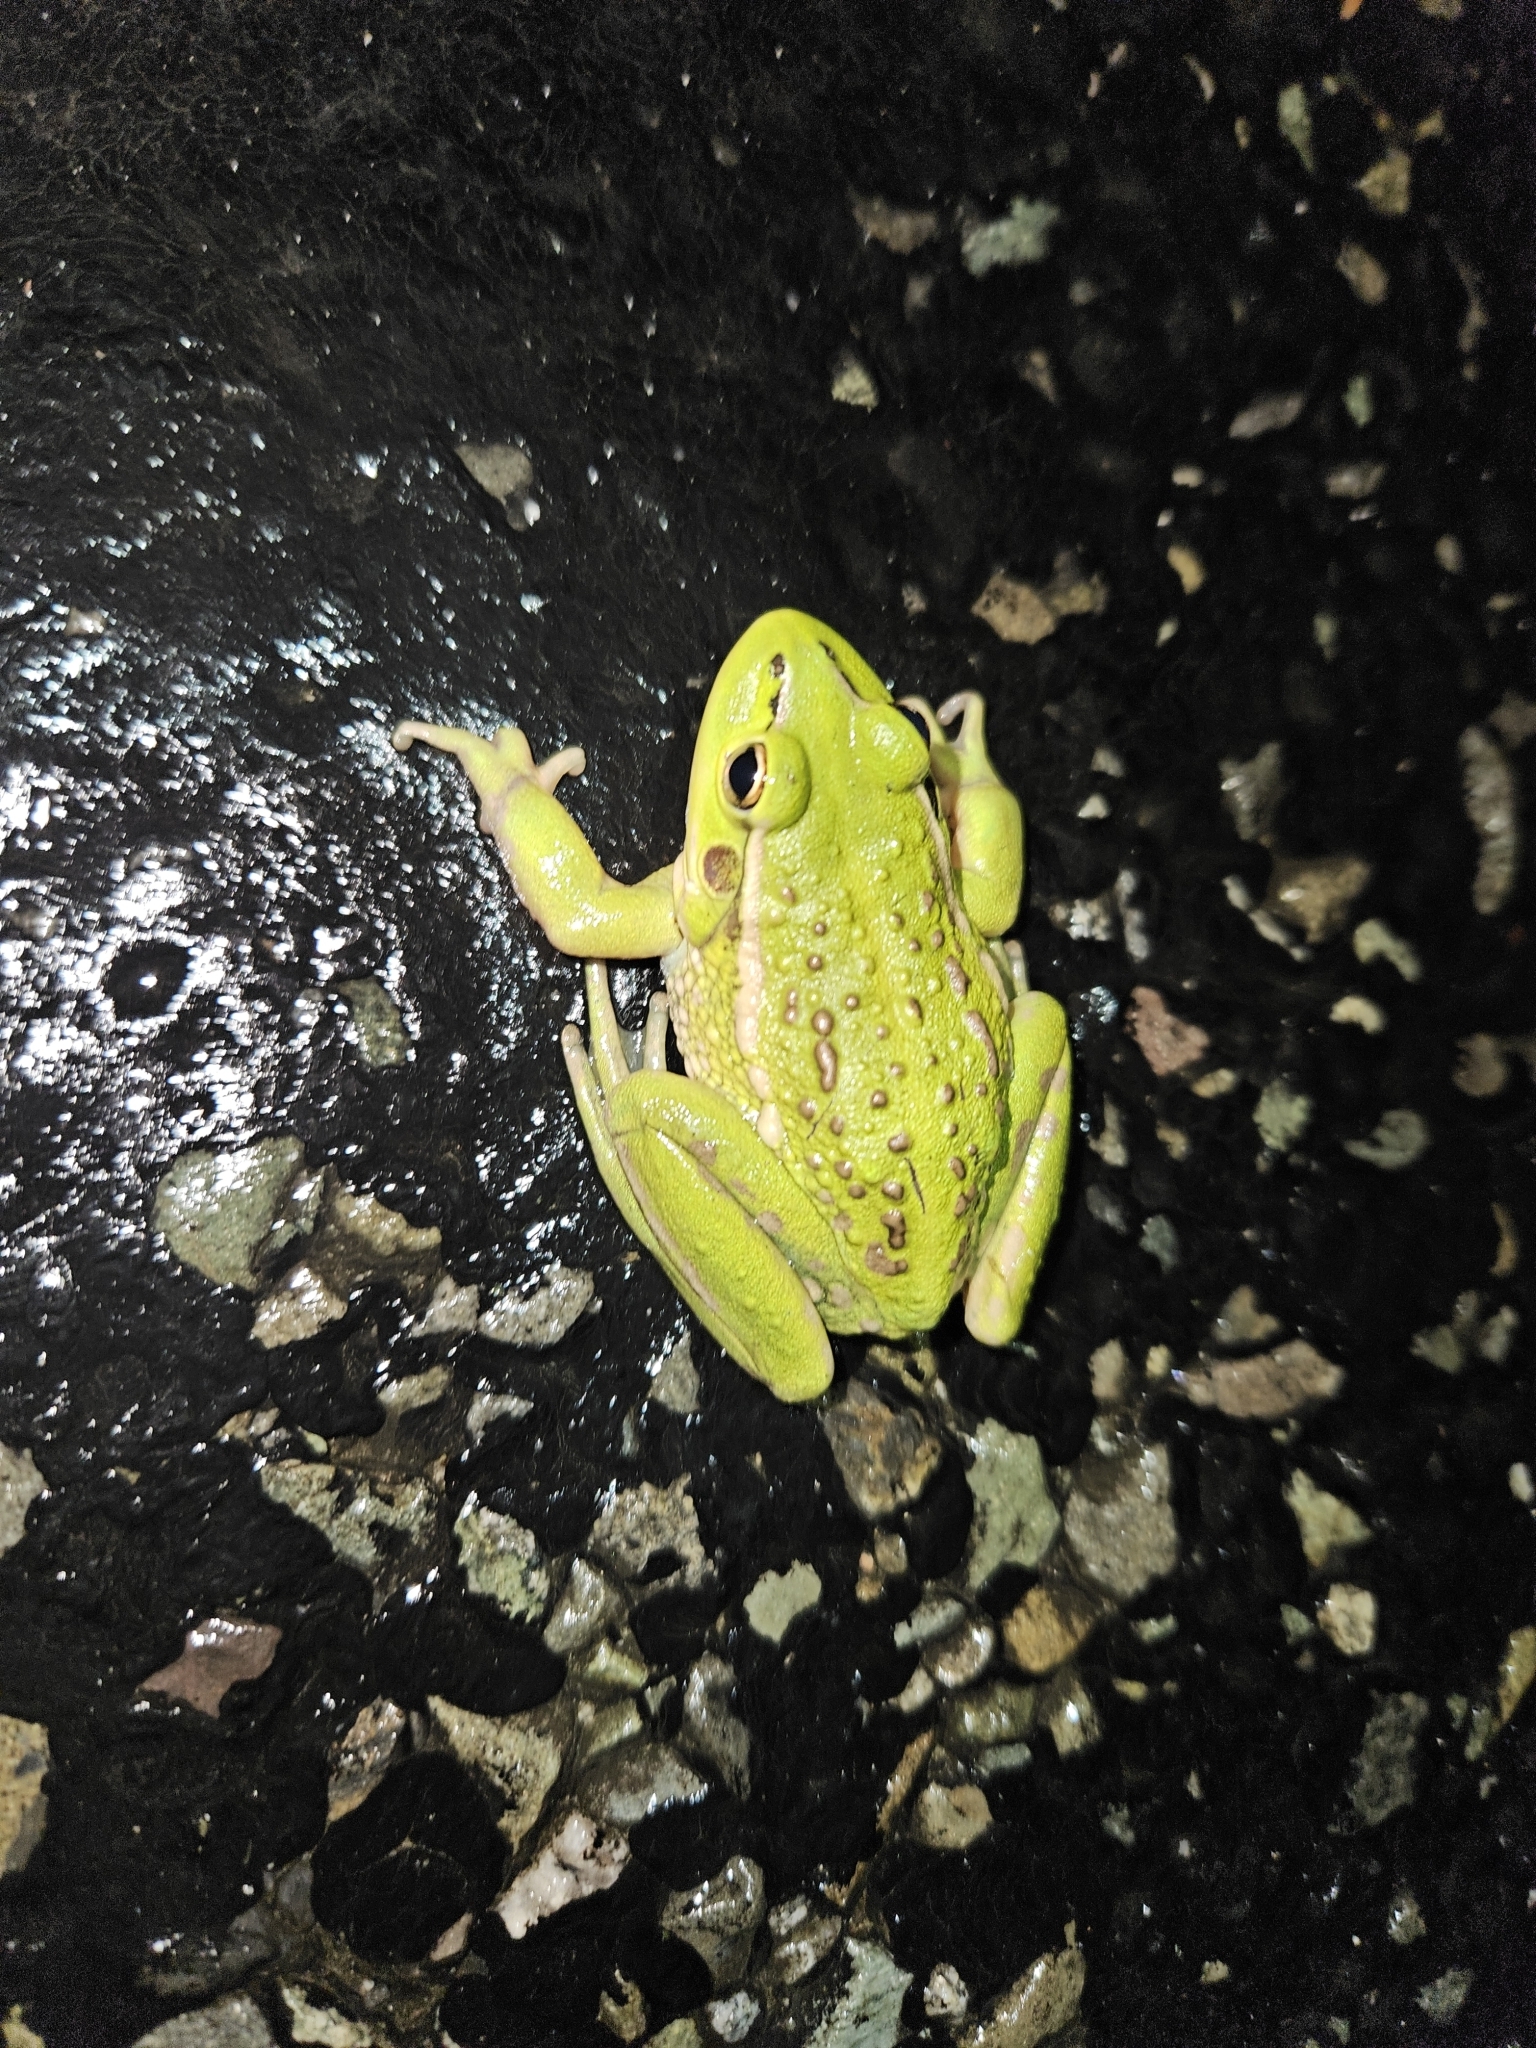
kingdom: Animalia
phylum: Chordata
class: Amphibia
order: Anura
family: Pelodryadidae
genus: Ranoidea
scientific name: Ranoidea raniformis
